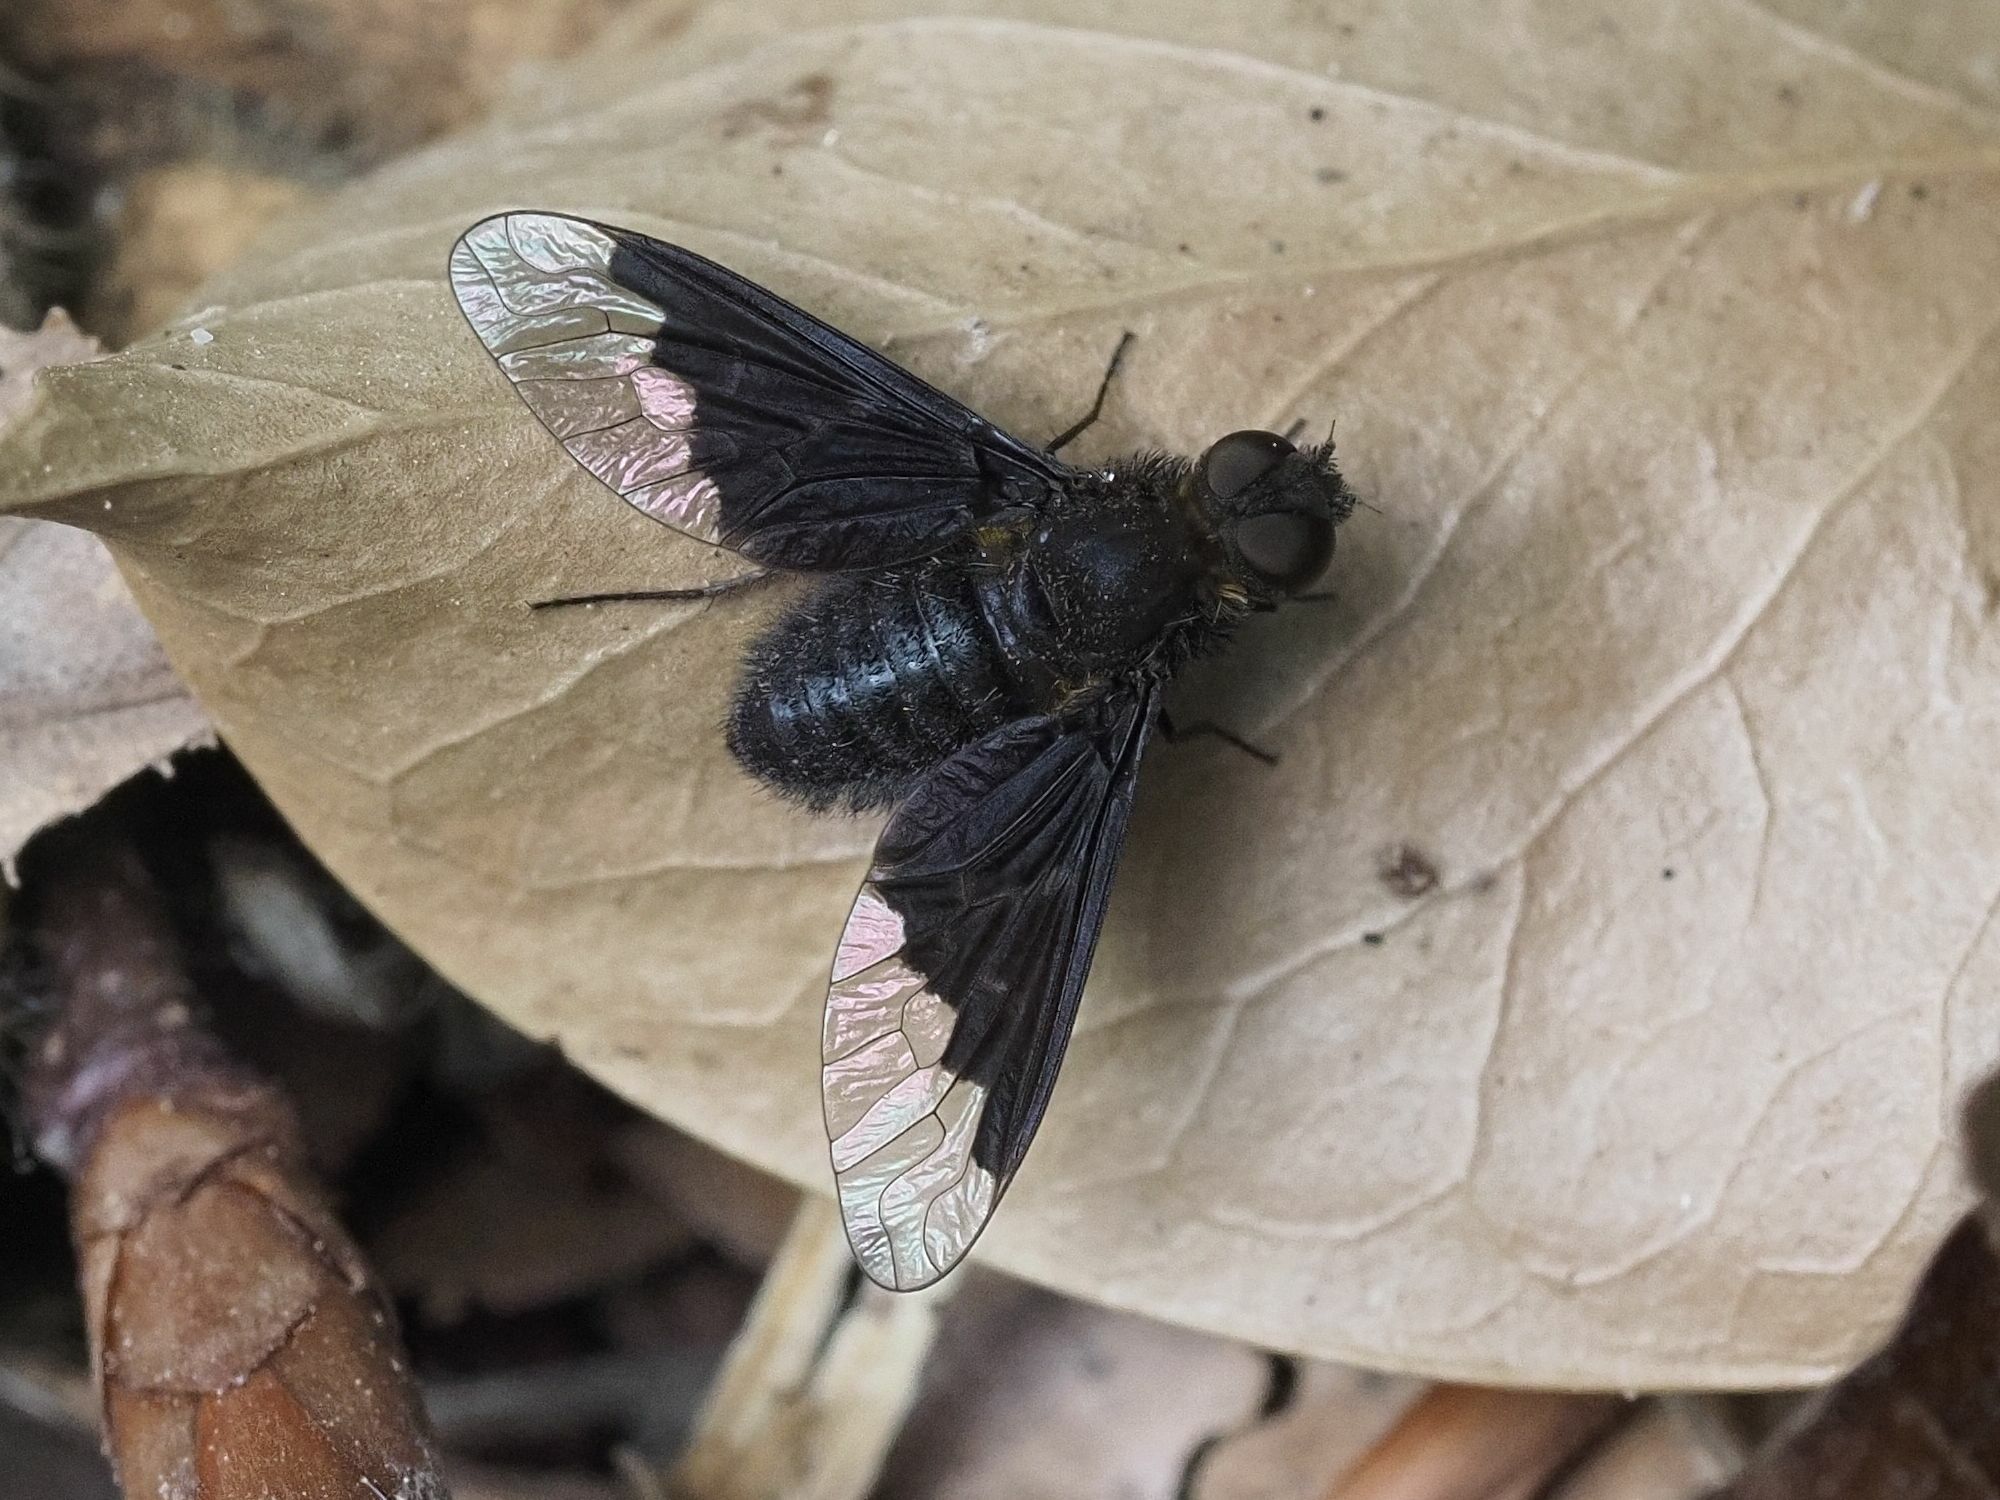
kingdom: Animalia
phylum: Arthropoda
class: Insecta
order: Diptera
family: Bombyliidae
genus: Hemipenthes
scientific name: Hemipenthes morio
